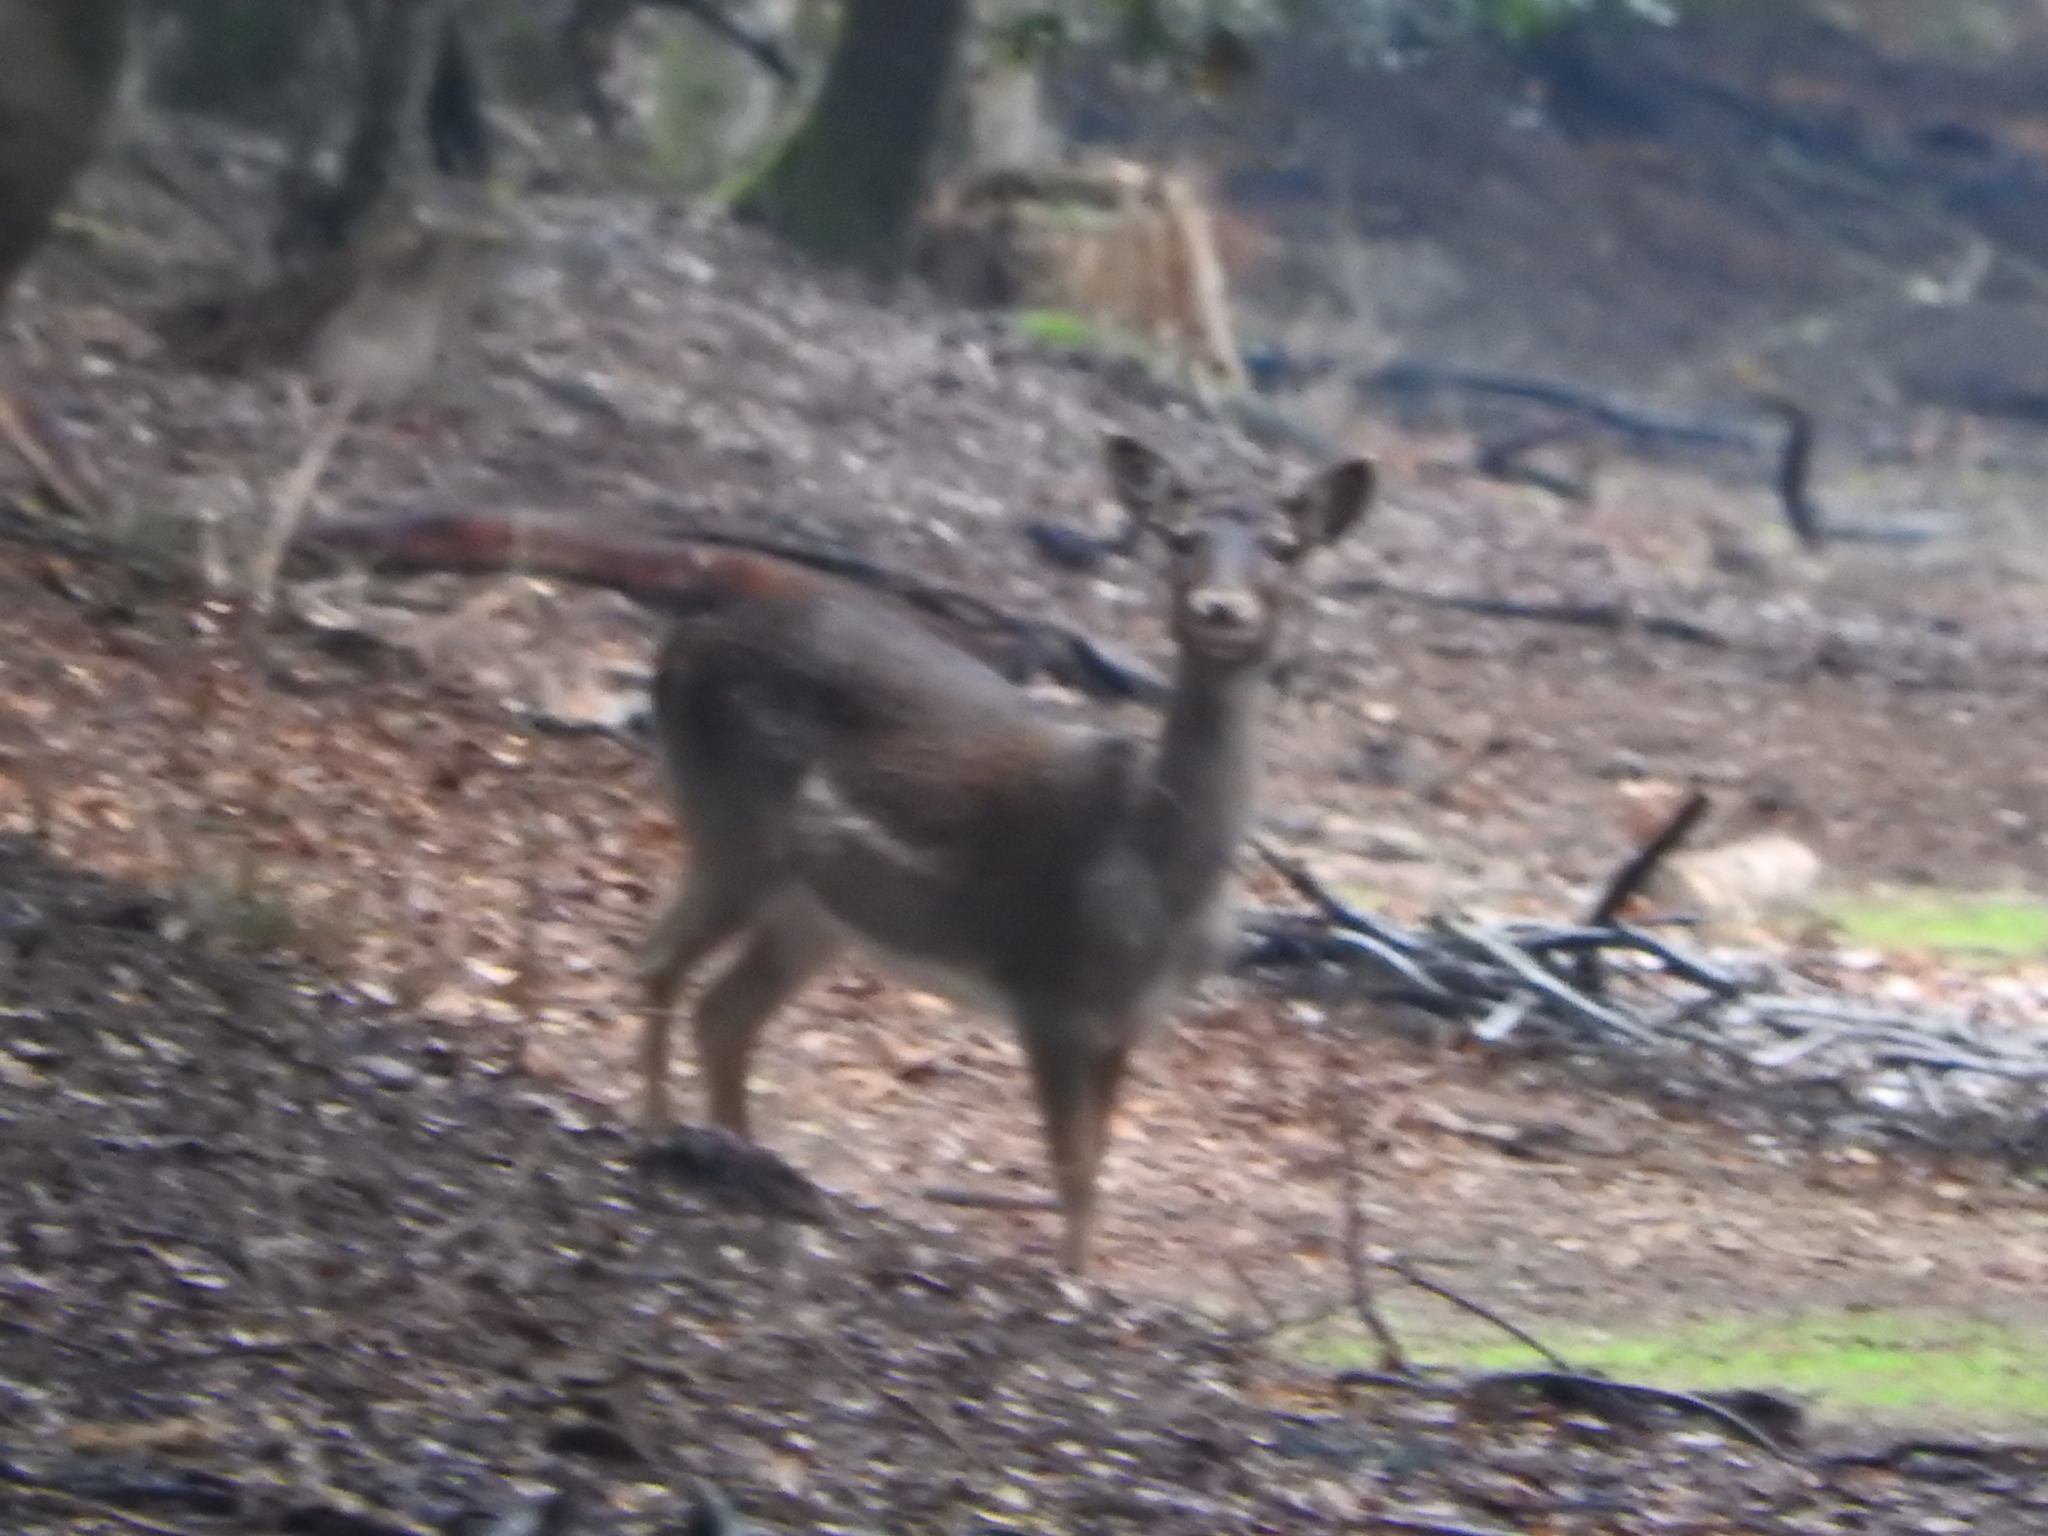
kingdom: Animalia
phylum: Chordata
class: Mammalia
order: Artiodactyla
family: Cervidae
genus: Dama
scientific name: Dama dama
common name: Fallow deer
